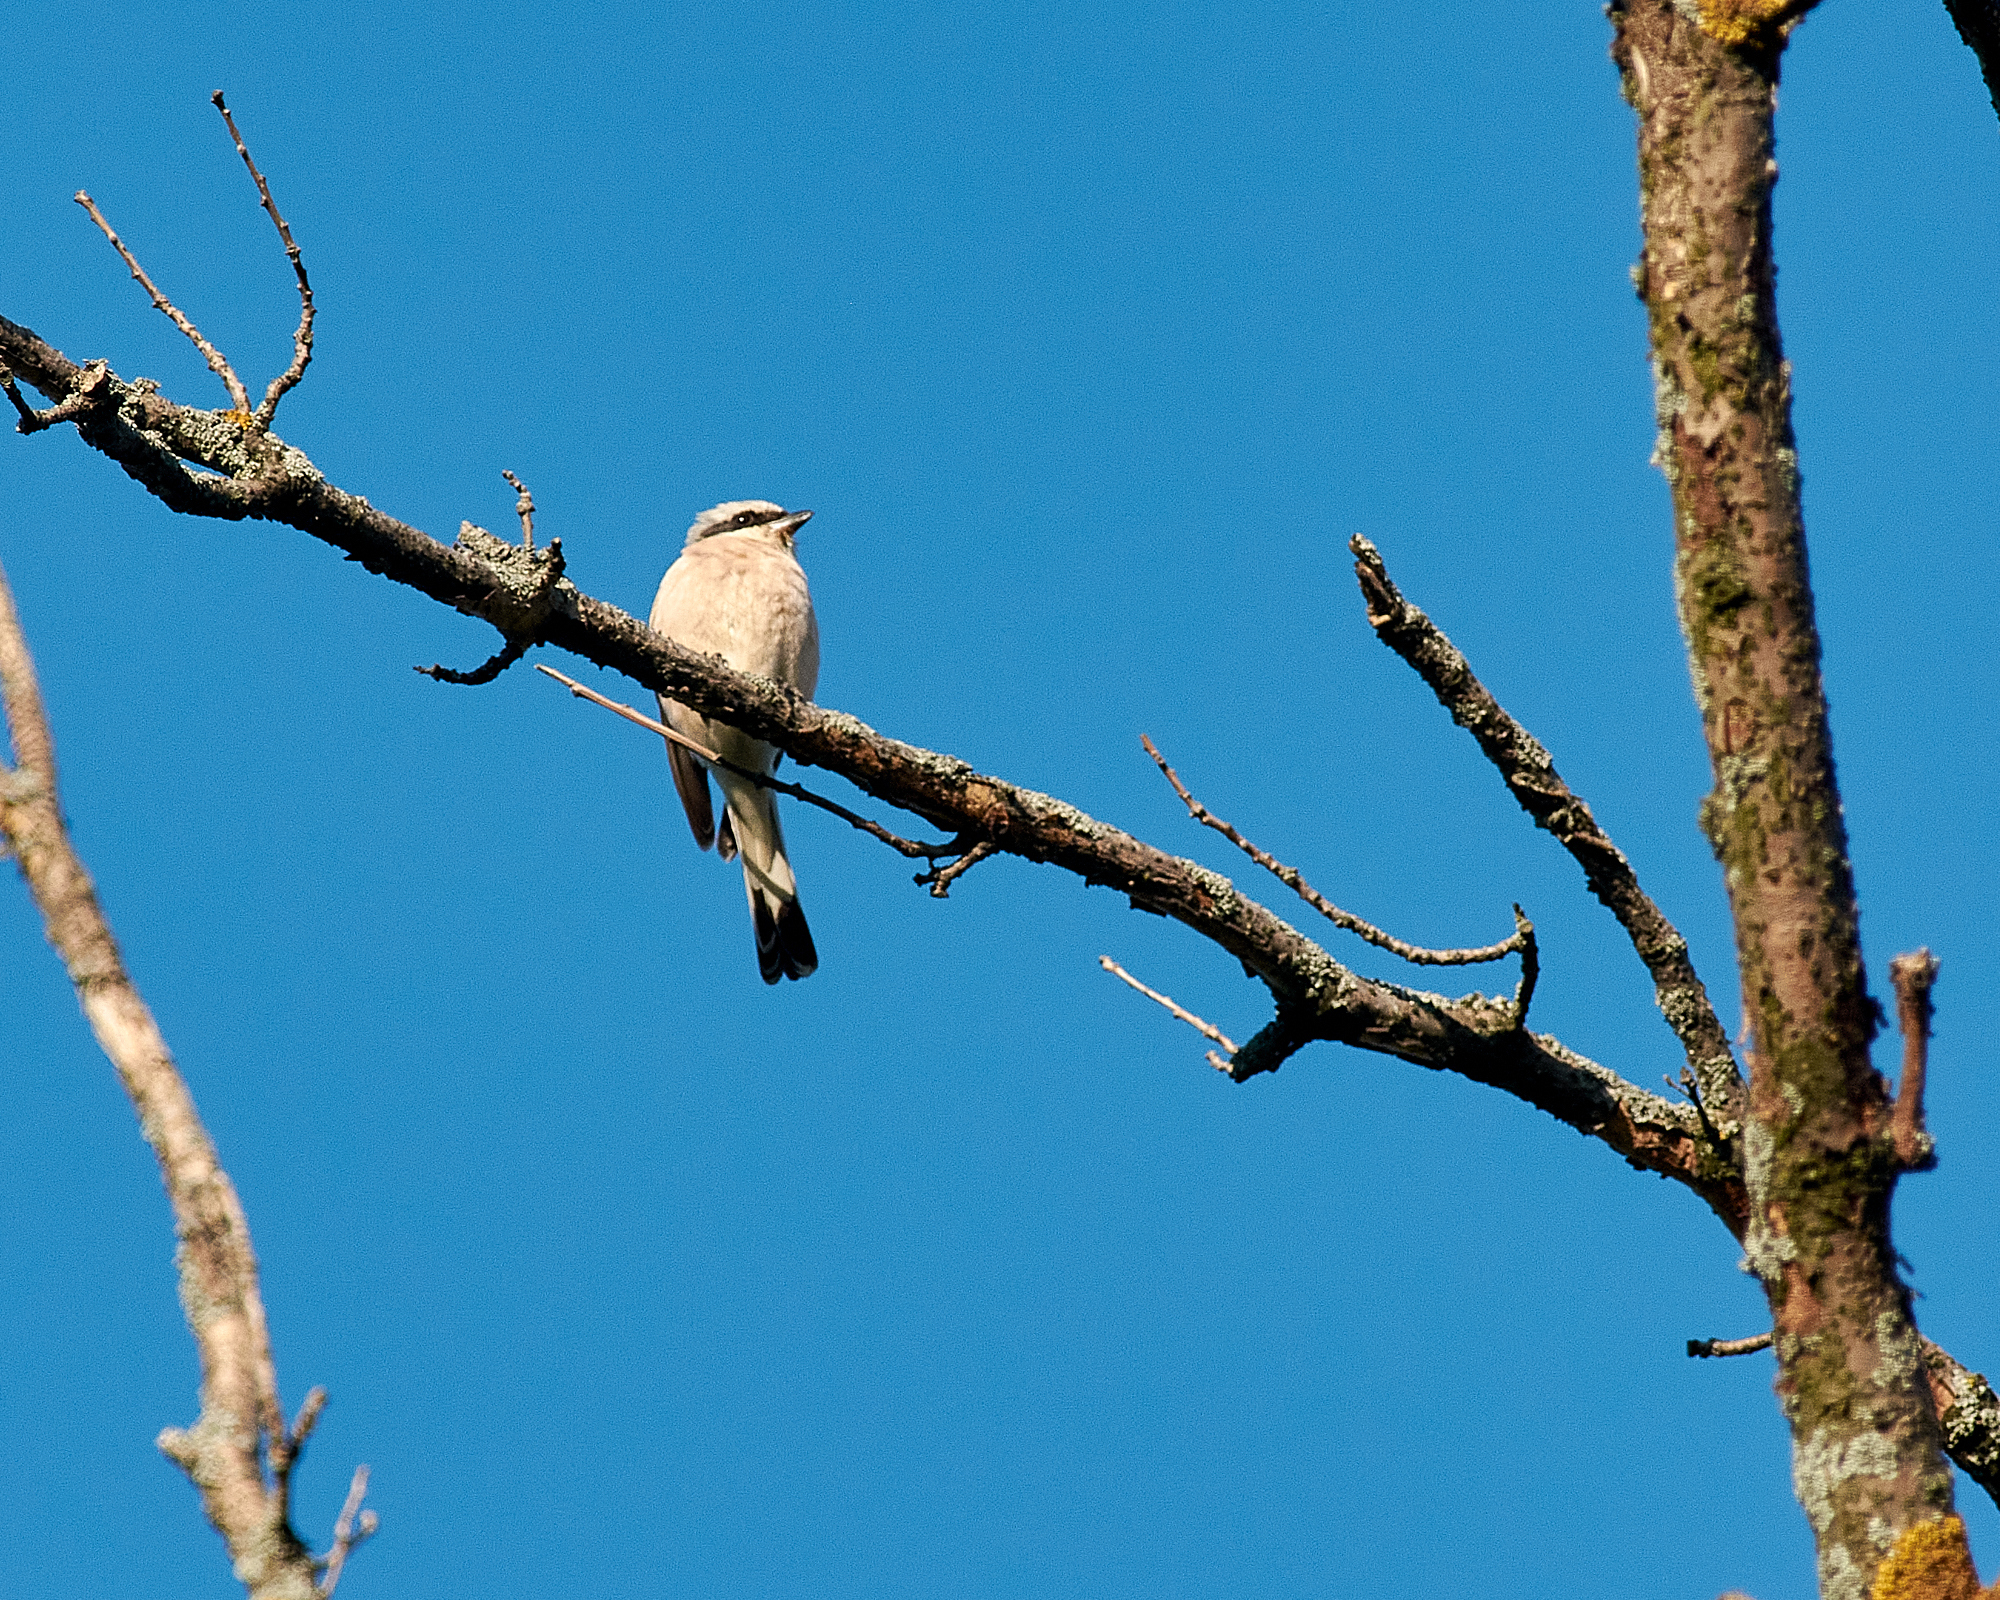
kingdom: Animalia
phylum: Chordata
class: Aves
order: Passeriformes
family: Laniidae
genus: Lanius
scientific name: Lanius collurio
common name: Red-backed shrike
